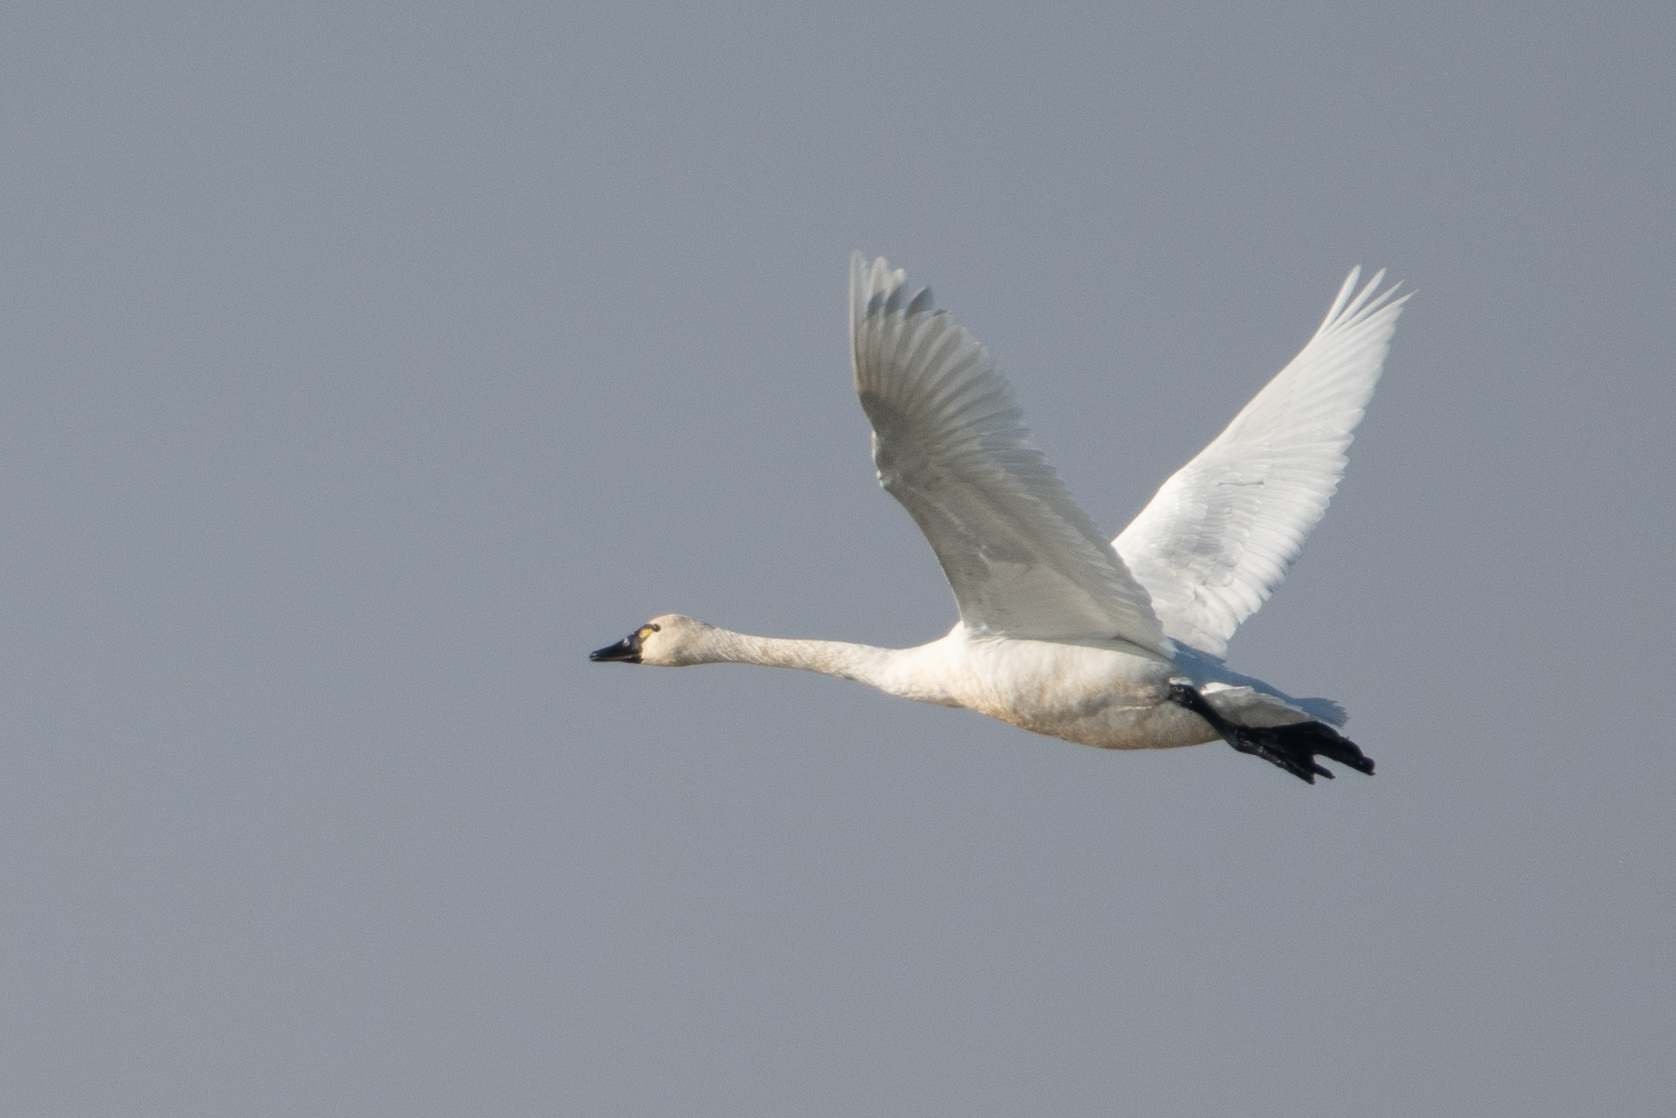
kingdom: Animalia
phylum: Chordata
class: Aves
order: Anseriformes
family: Anatidae
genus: Cygnus
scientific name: Cygnus columbianus
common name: Tundra swan
